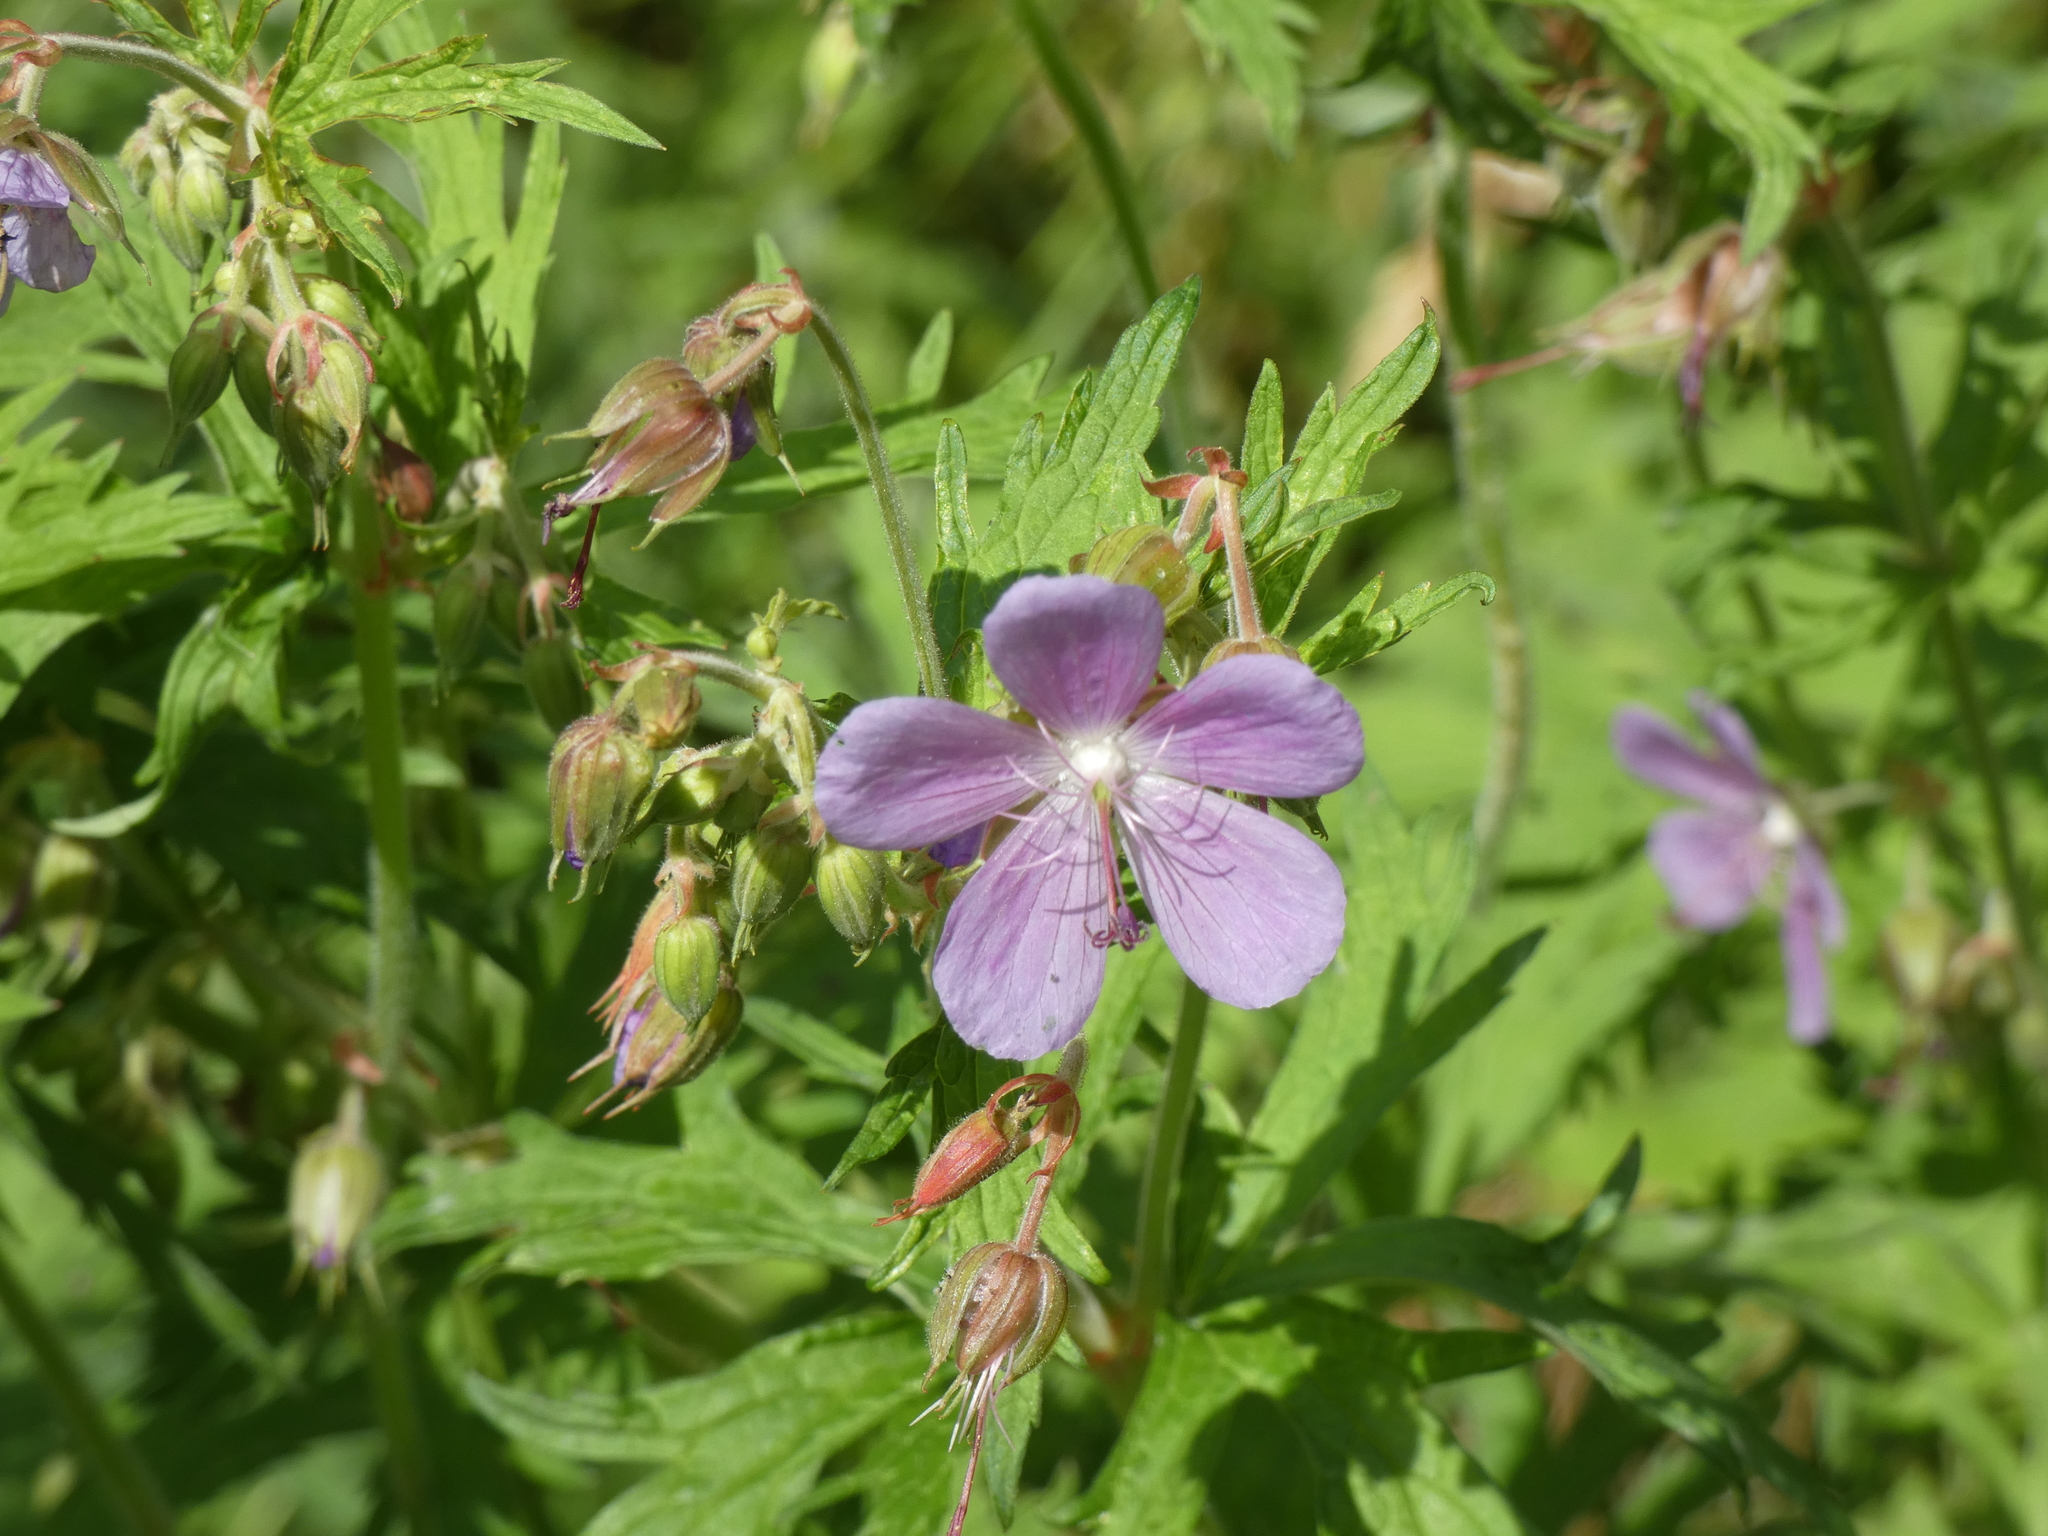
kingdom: Plantae
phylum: Tracheophyta
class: Magnoliopsida
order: Geraniales
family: Geraniaceae
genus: Geranium
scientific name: Geranium pratense
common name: Meadow crane's-bill
